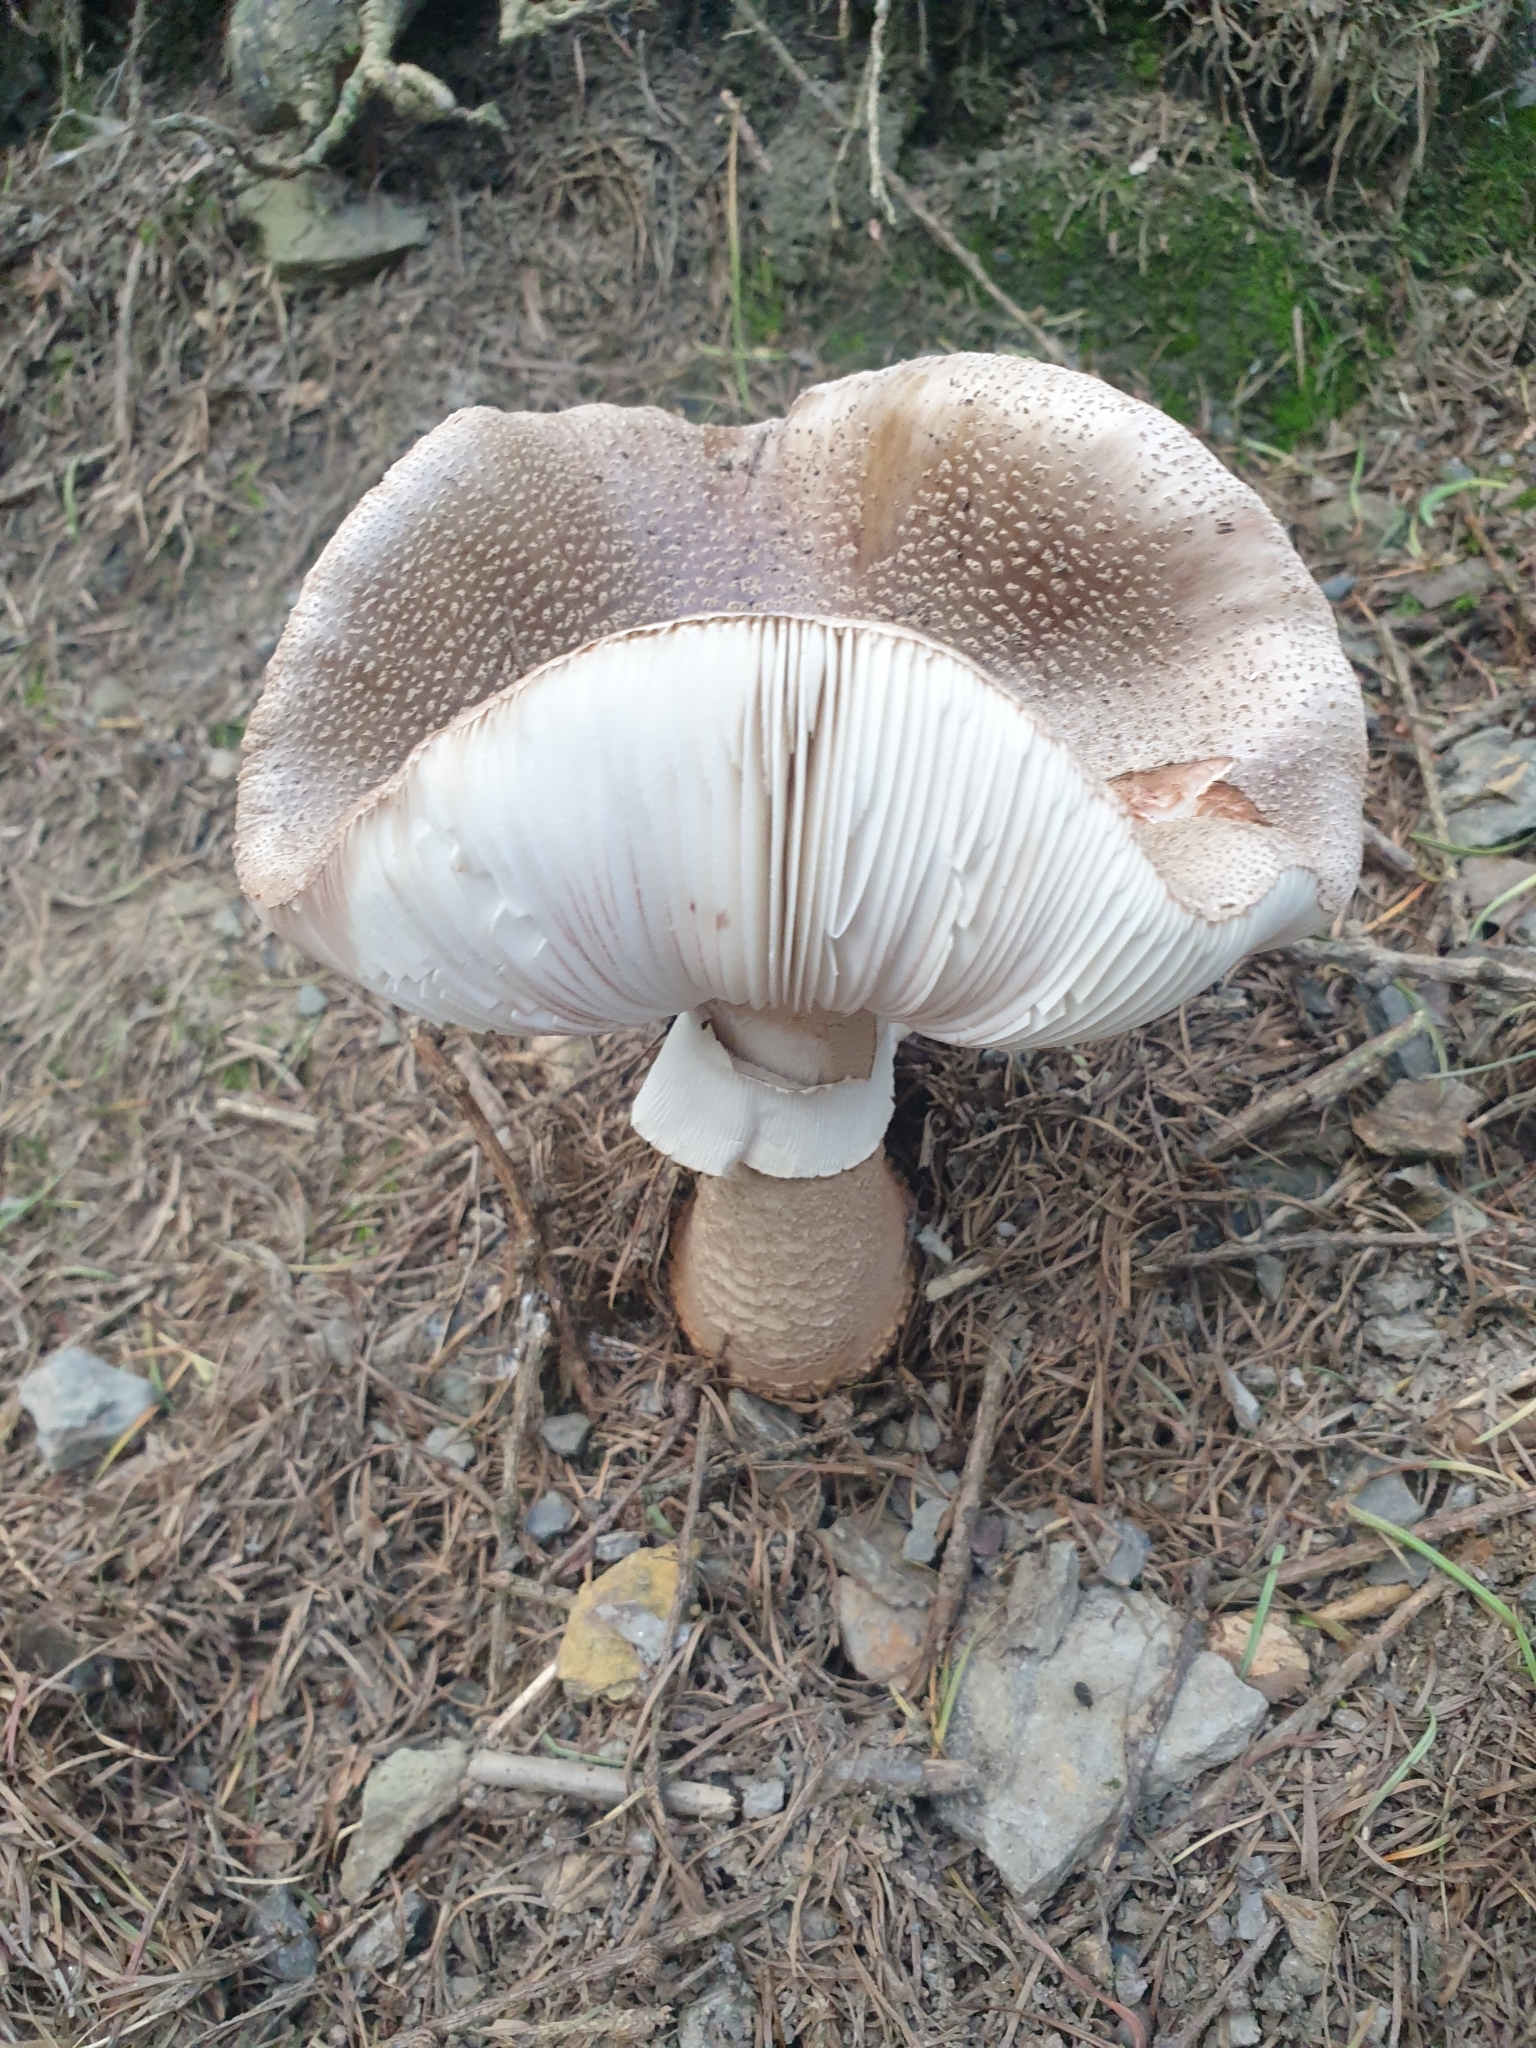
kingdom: Fungi
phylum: Basidiomycota
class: Agaricomycetes
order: Agaricales
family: Amanitaceae
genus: Amanita
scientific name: Amanita rubescens
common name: Blusher
